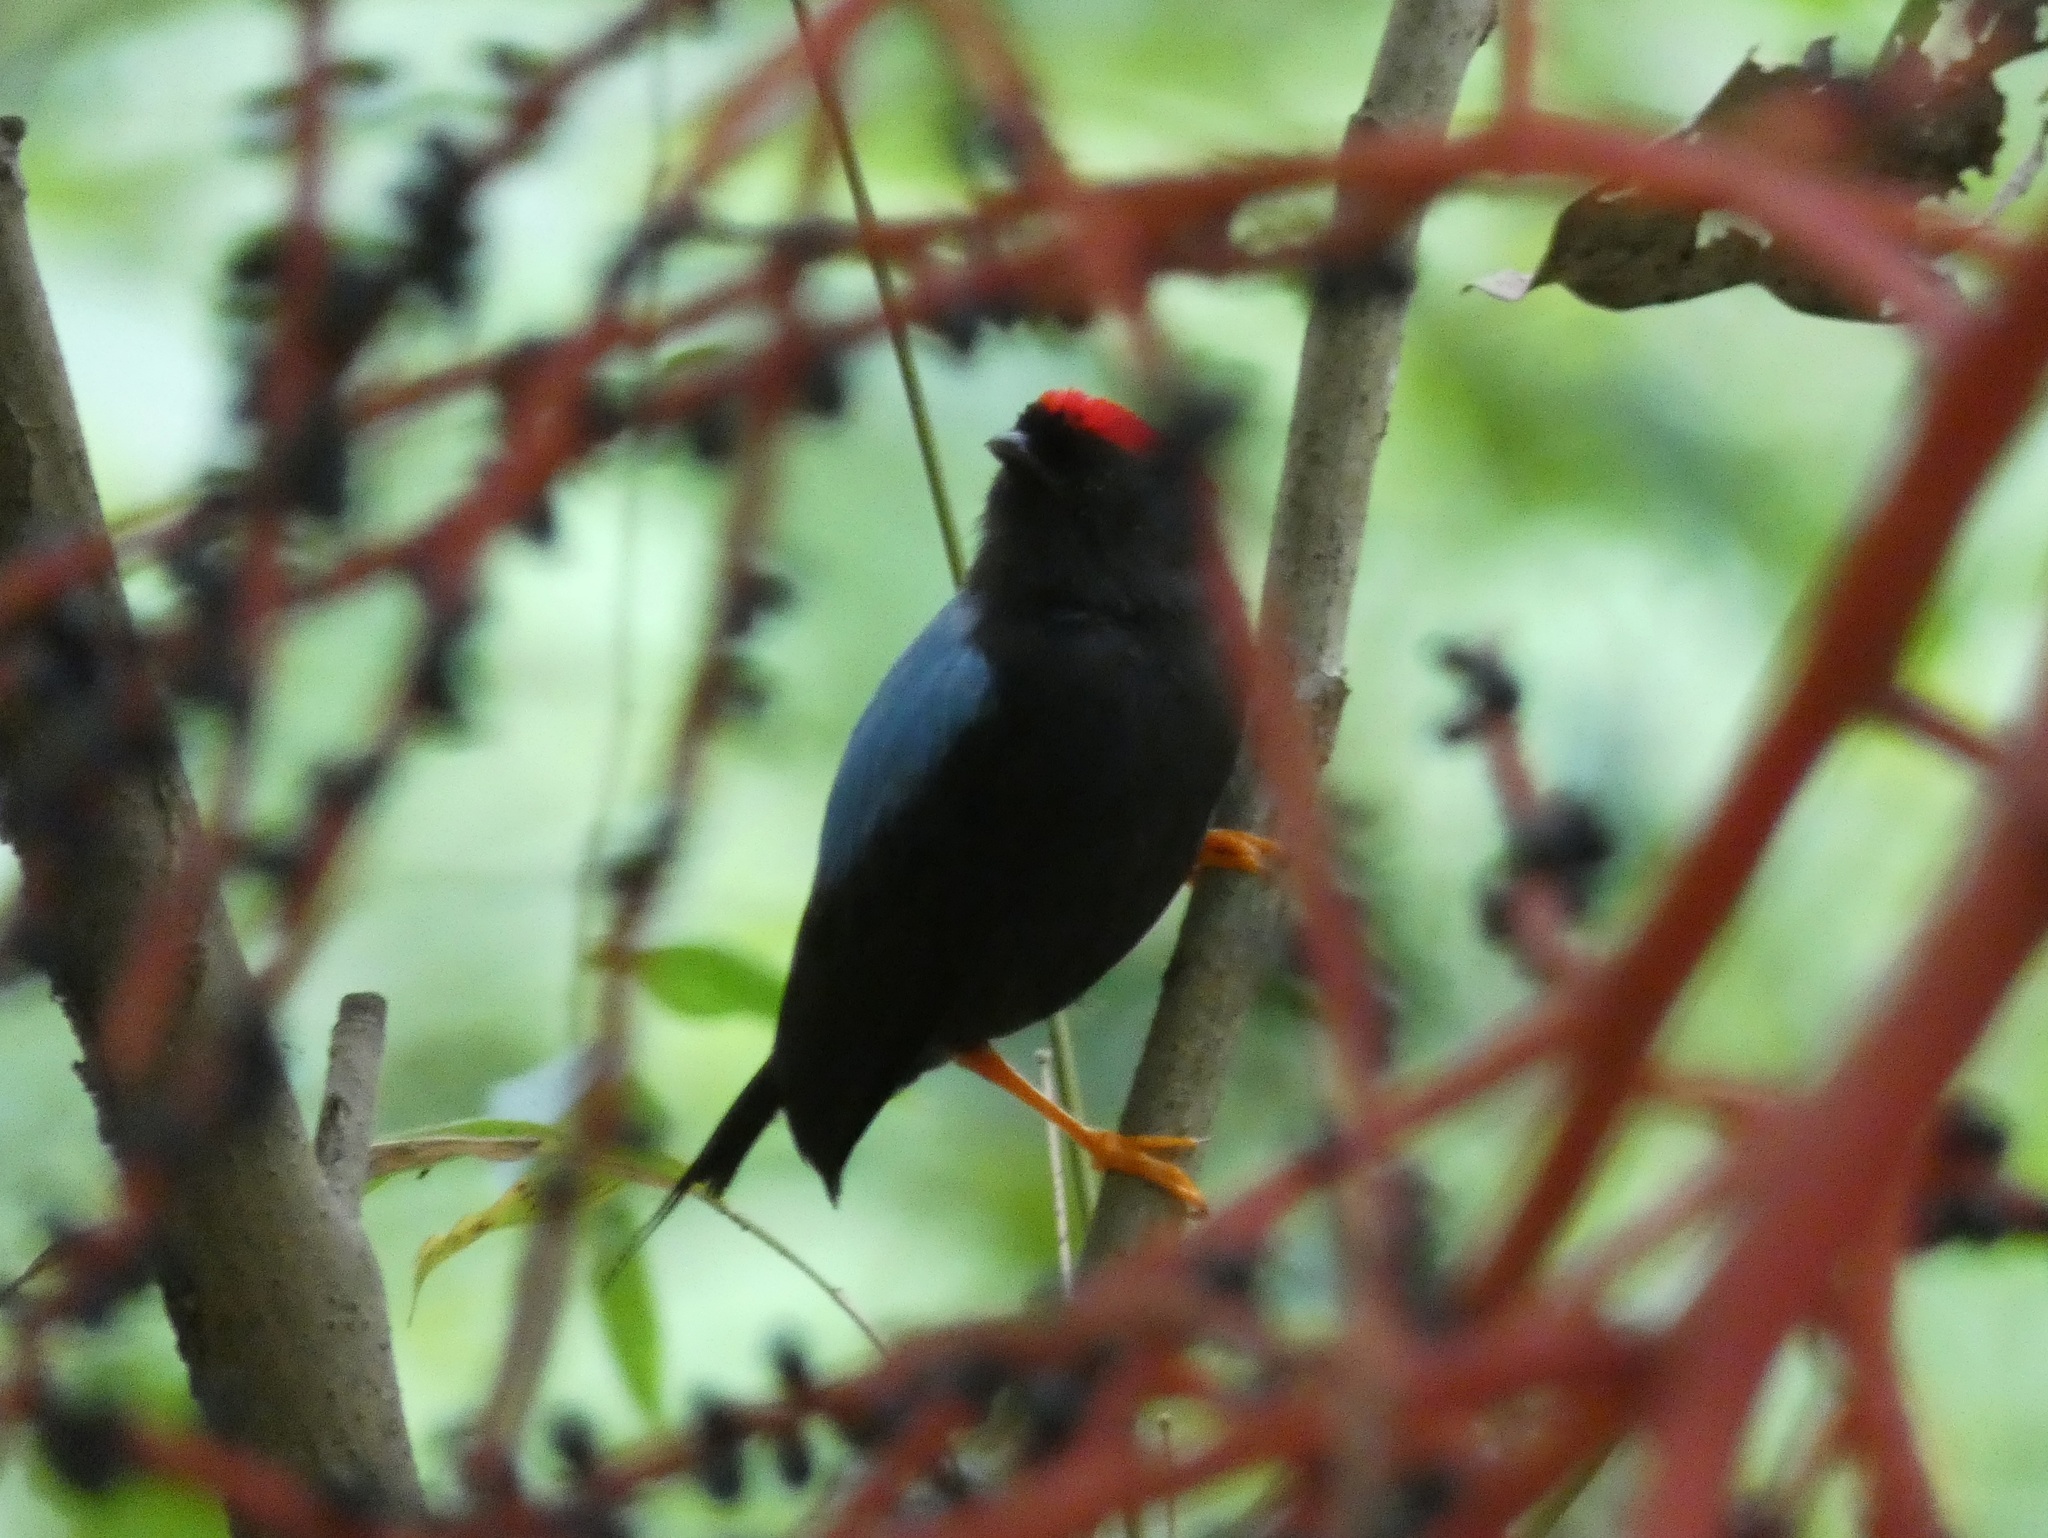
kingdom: Animalia
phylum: Chordata
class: Aves
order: Passeriformes
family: Pipridae
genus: Chiroxiphia
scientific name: Chiroxiphia lanceolata
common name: Lance-tailed manakin
